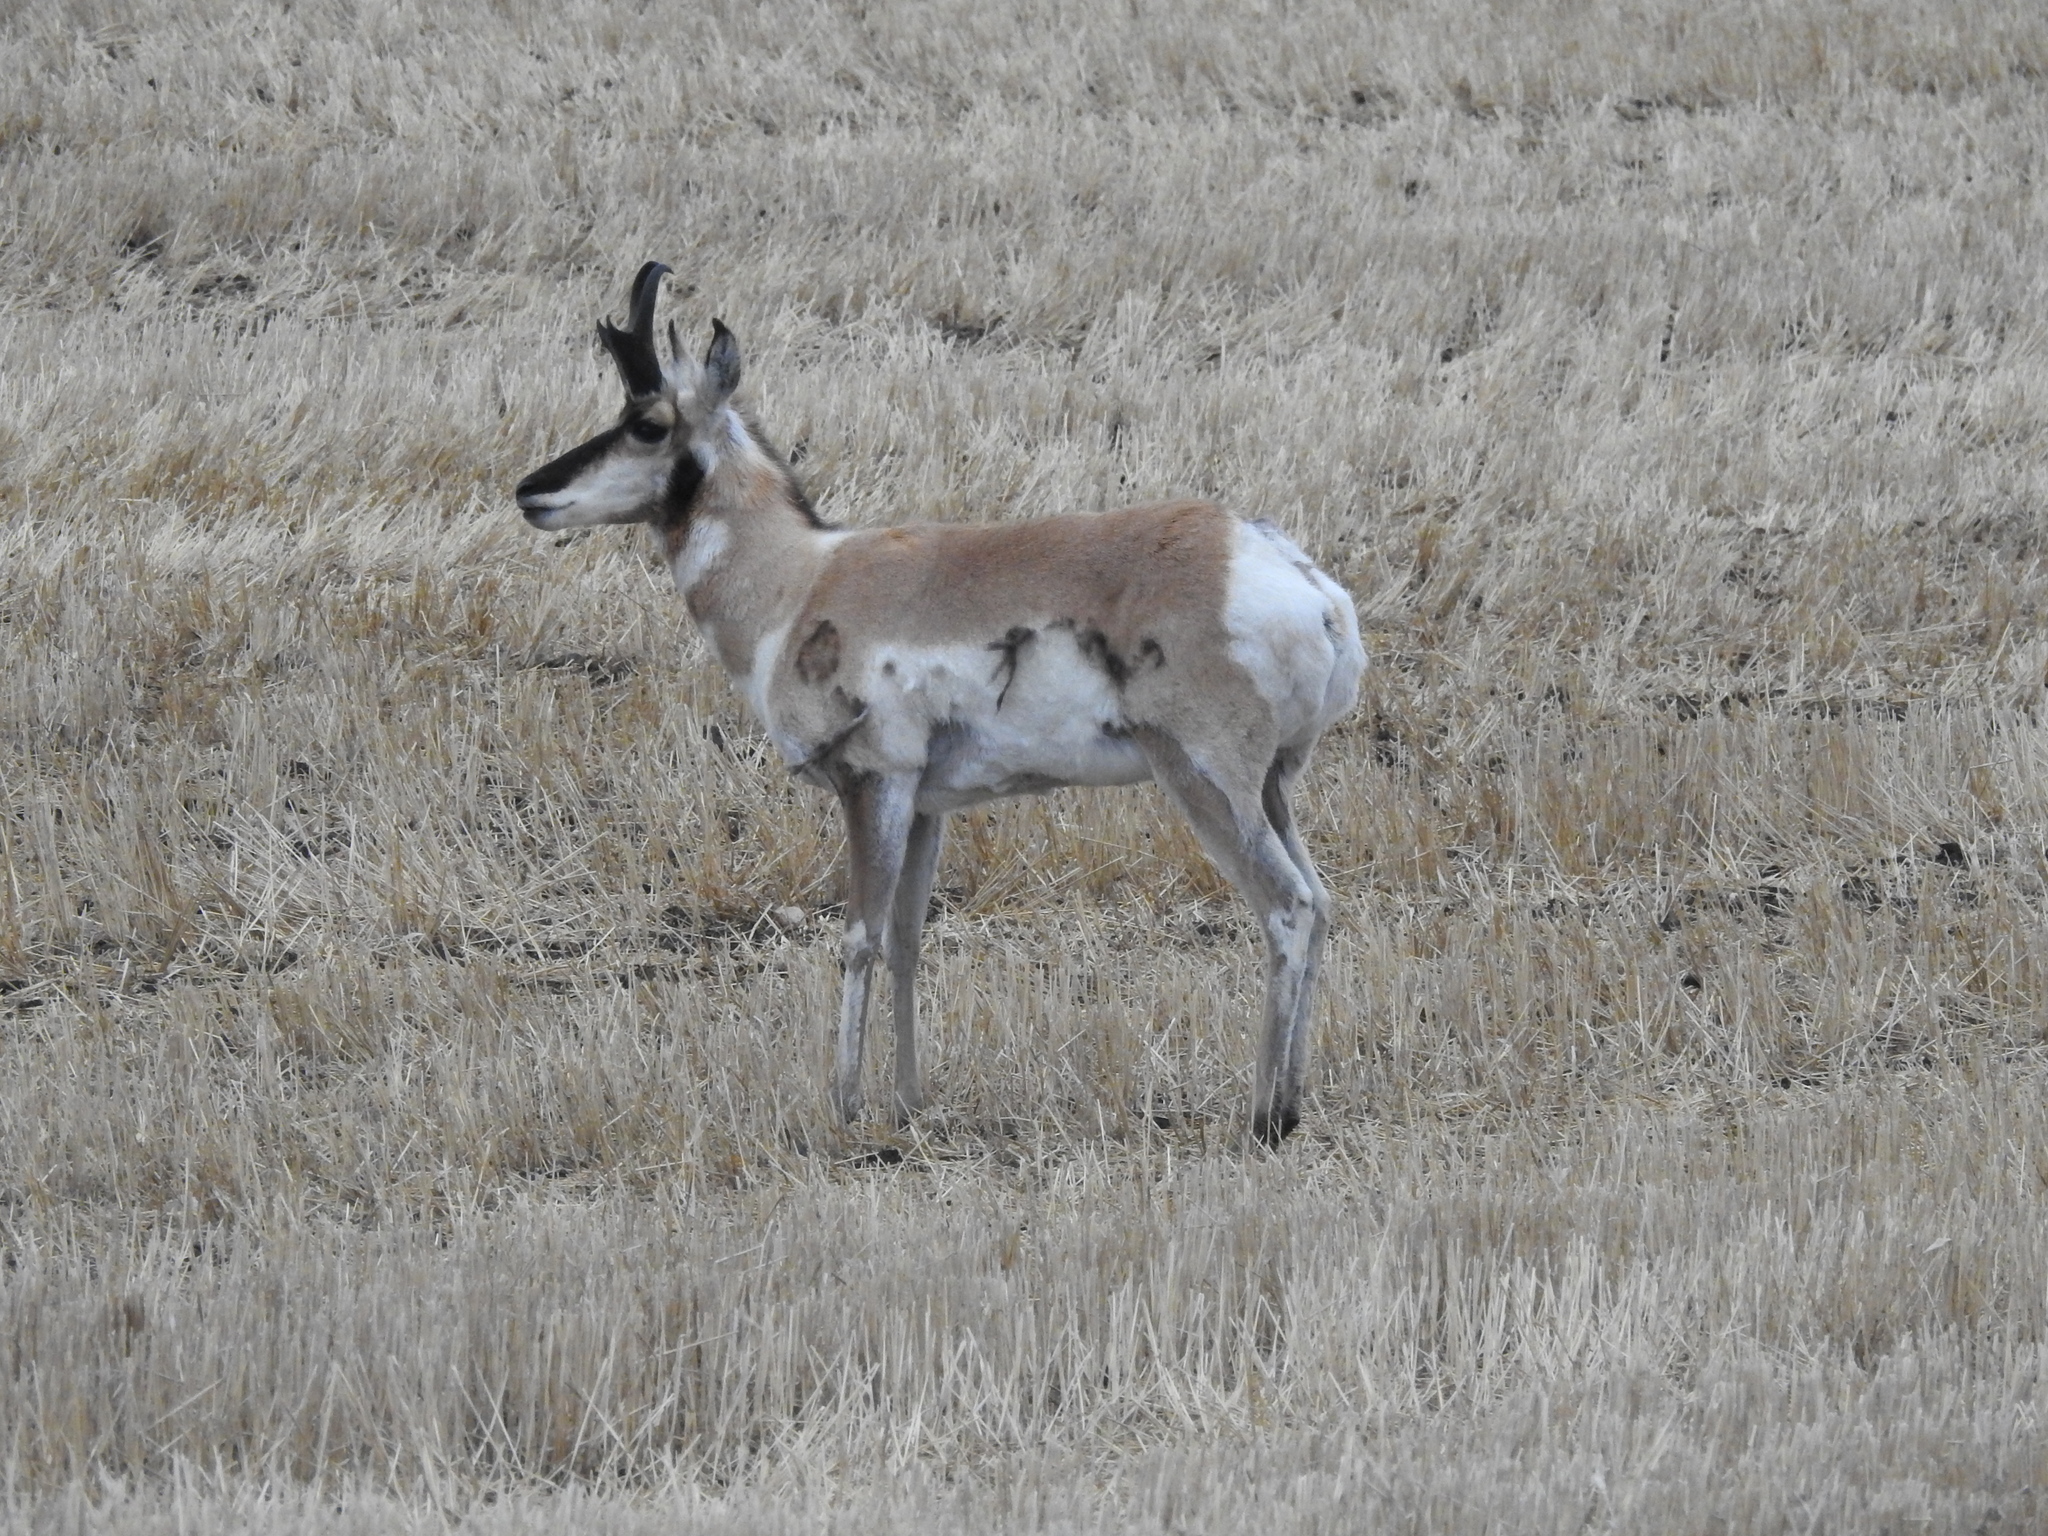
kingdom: Animalia
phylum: Chordata
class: Mammalia
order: Artiodactyla
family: Antilocapridae
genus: Antilocapra
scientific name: Antilocapra americana
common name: Pronghorn
